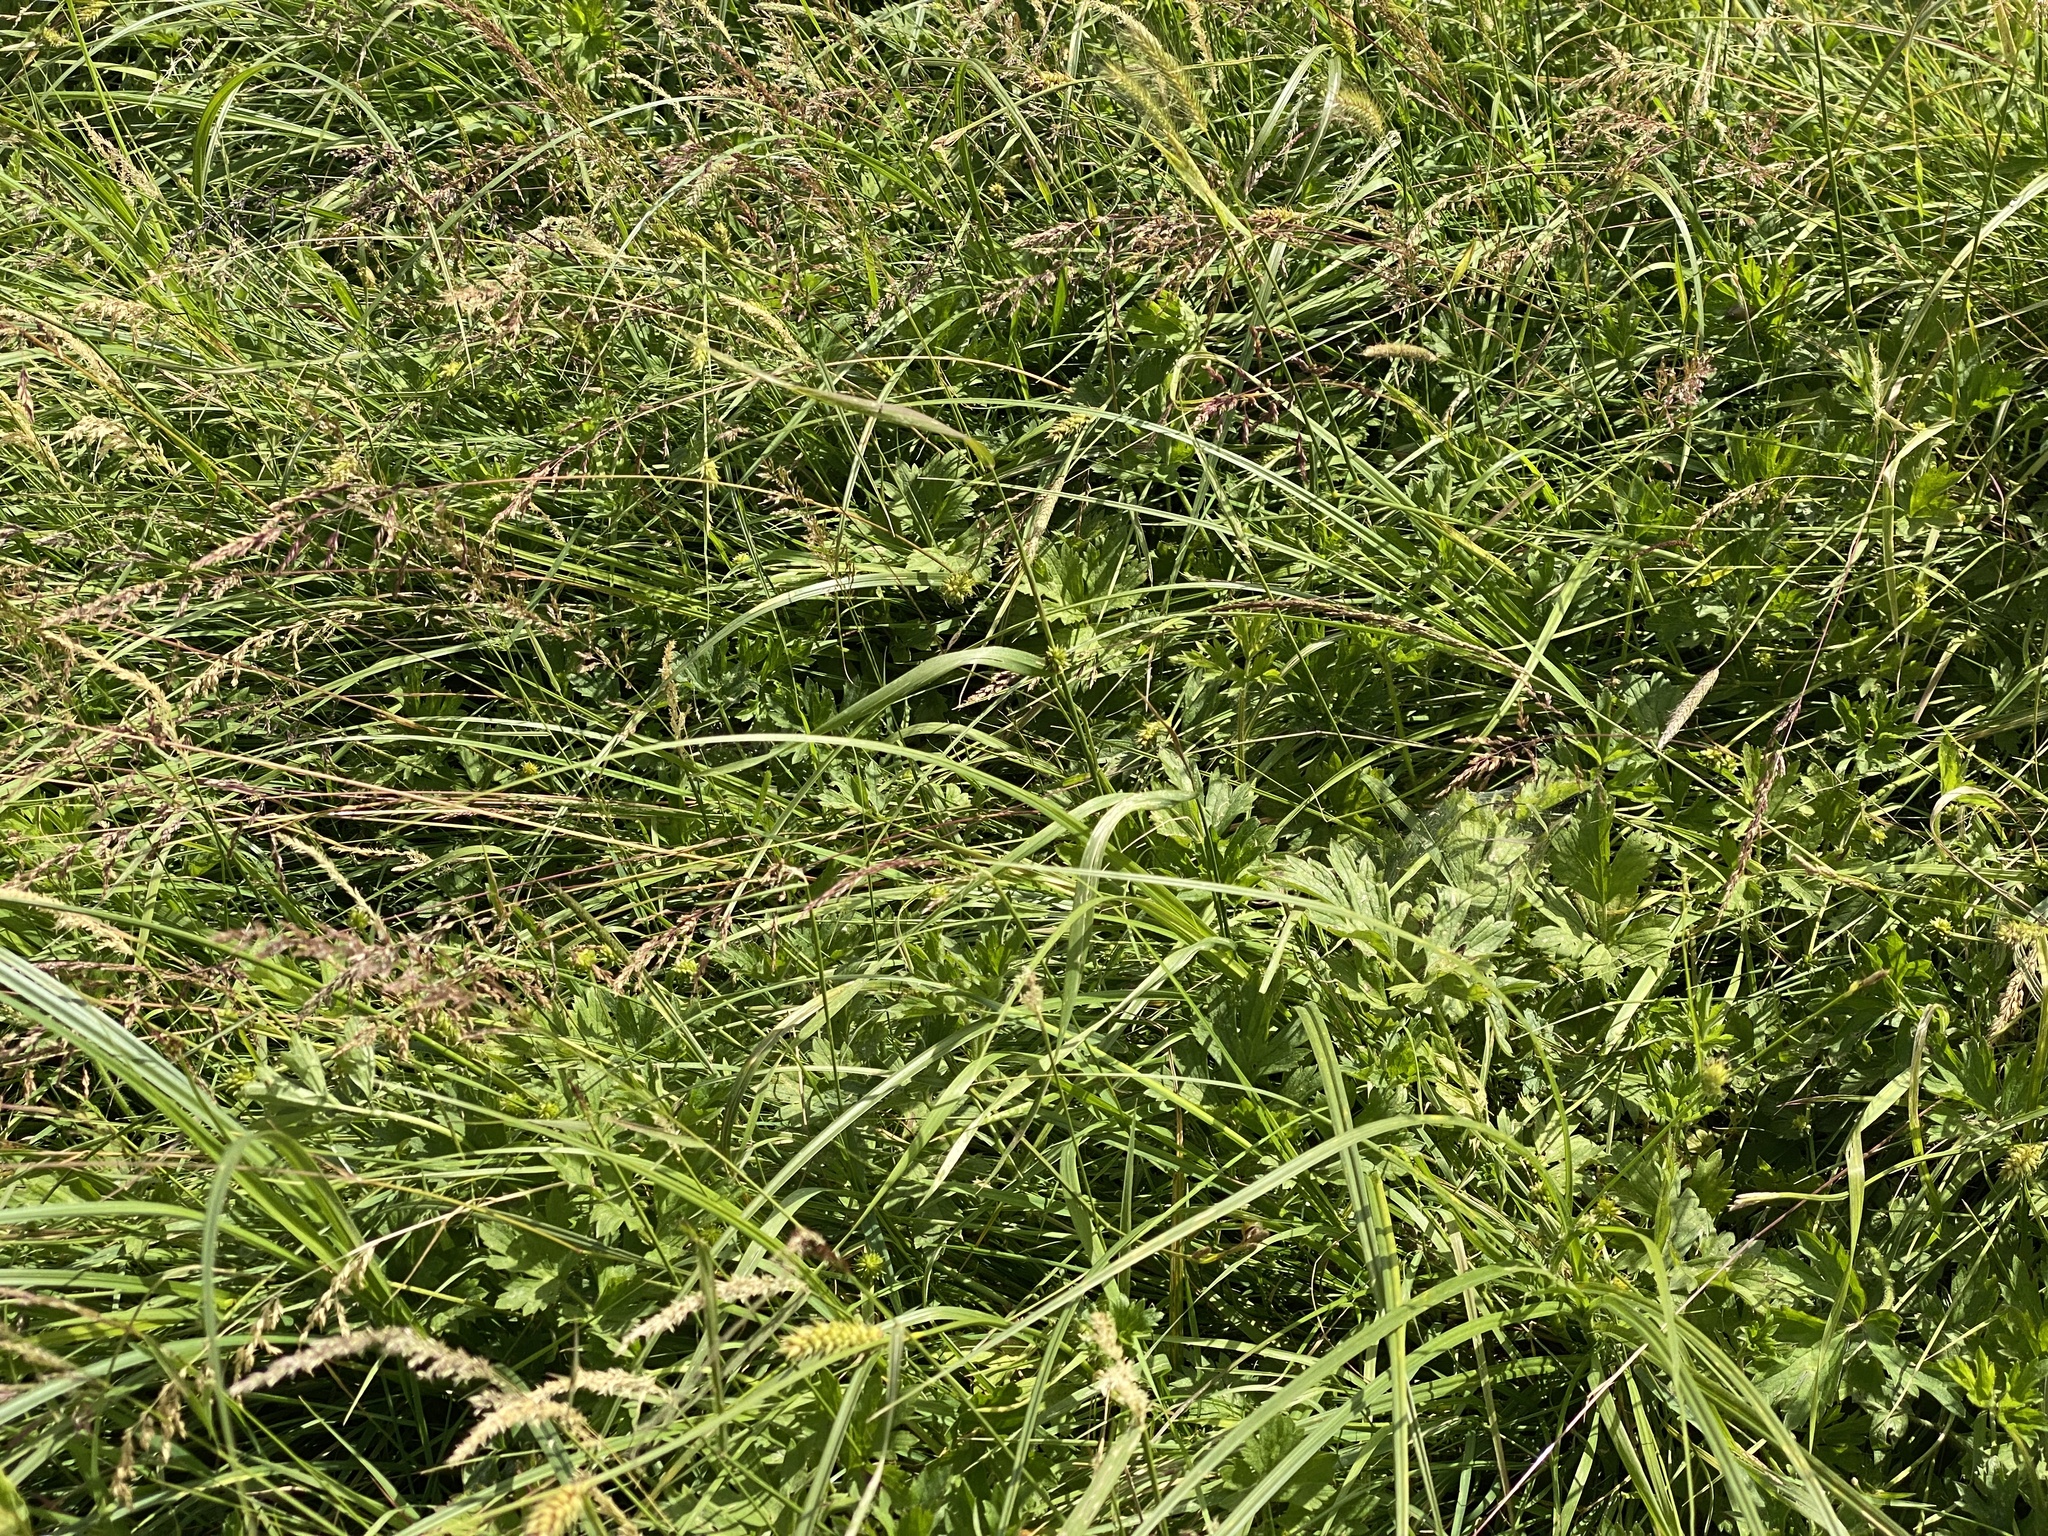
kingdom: Plantae
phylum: Tracheophyta
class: Liliopsida
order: Poales
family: Cyperaceae
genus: Carex
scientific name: Carex riparia
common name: Greater pond-sedge
